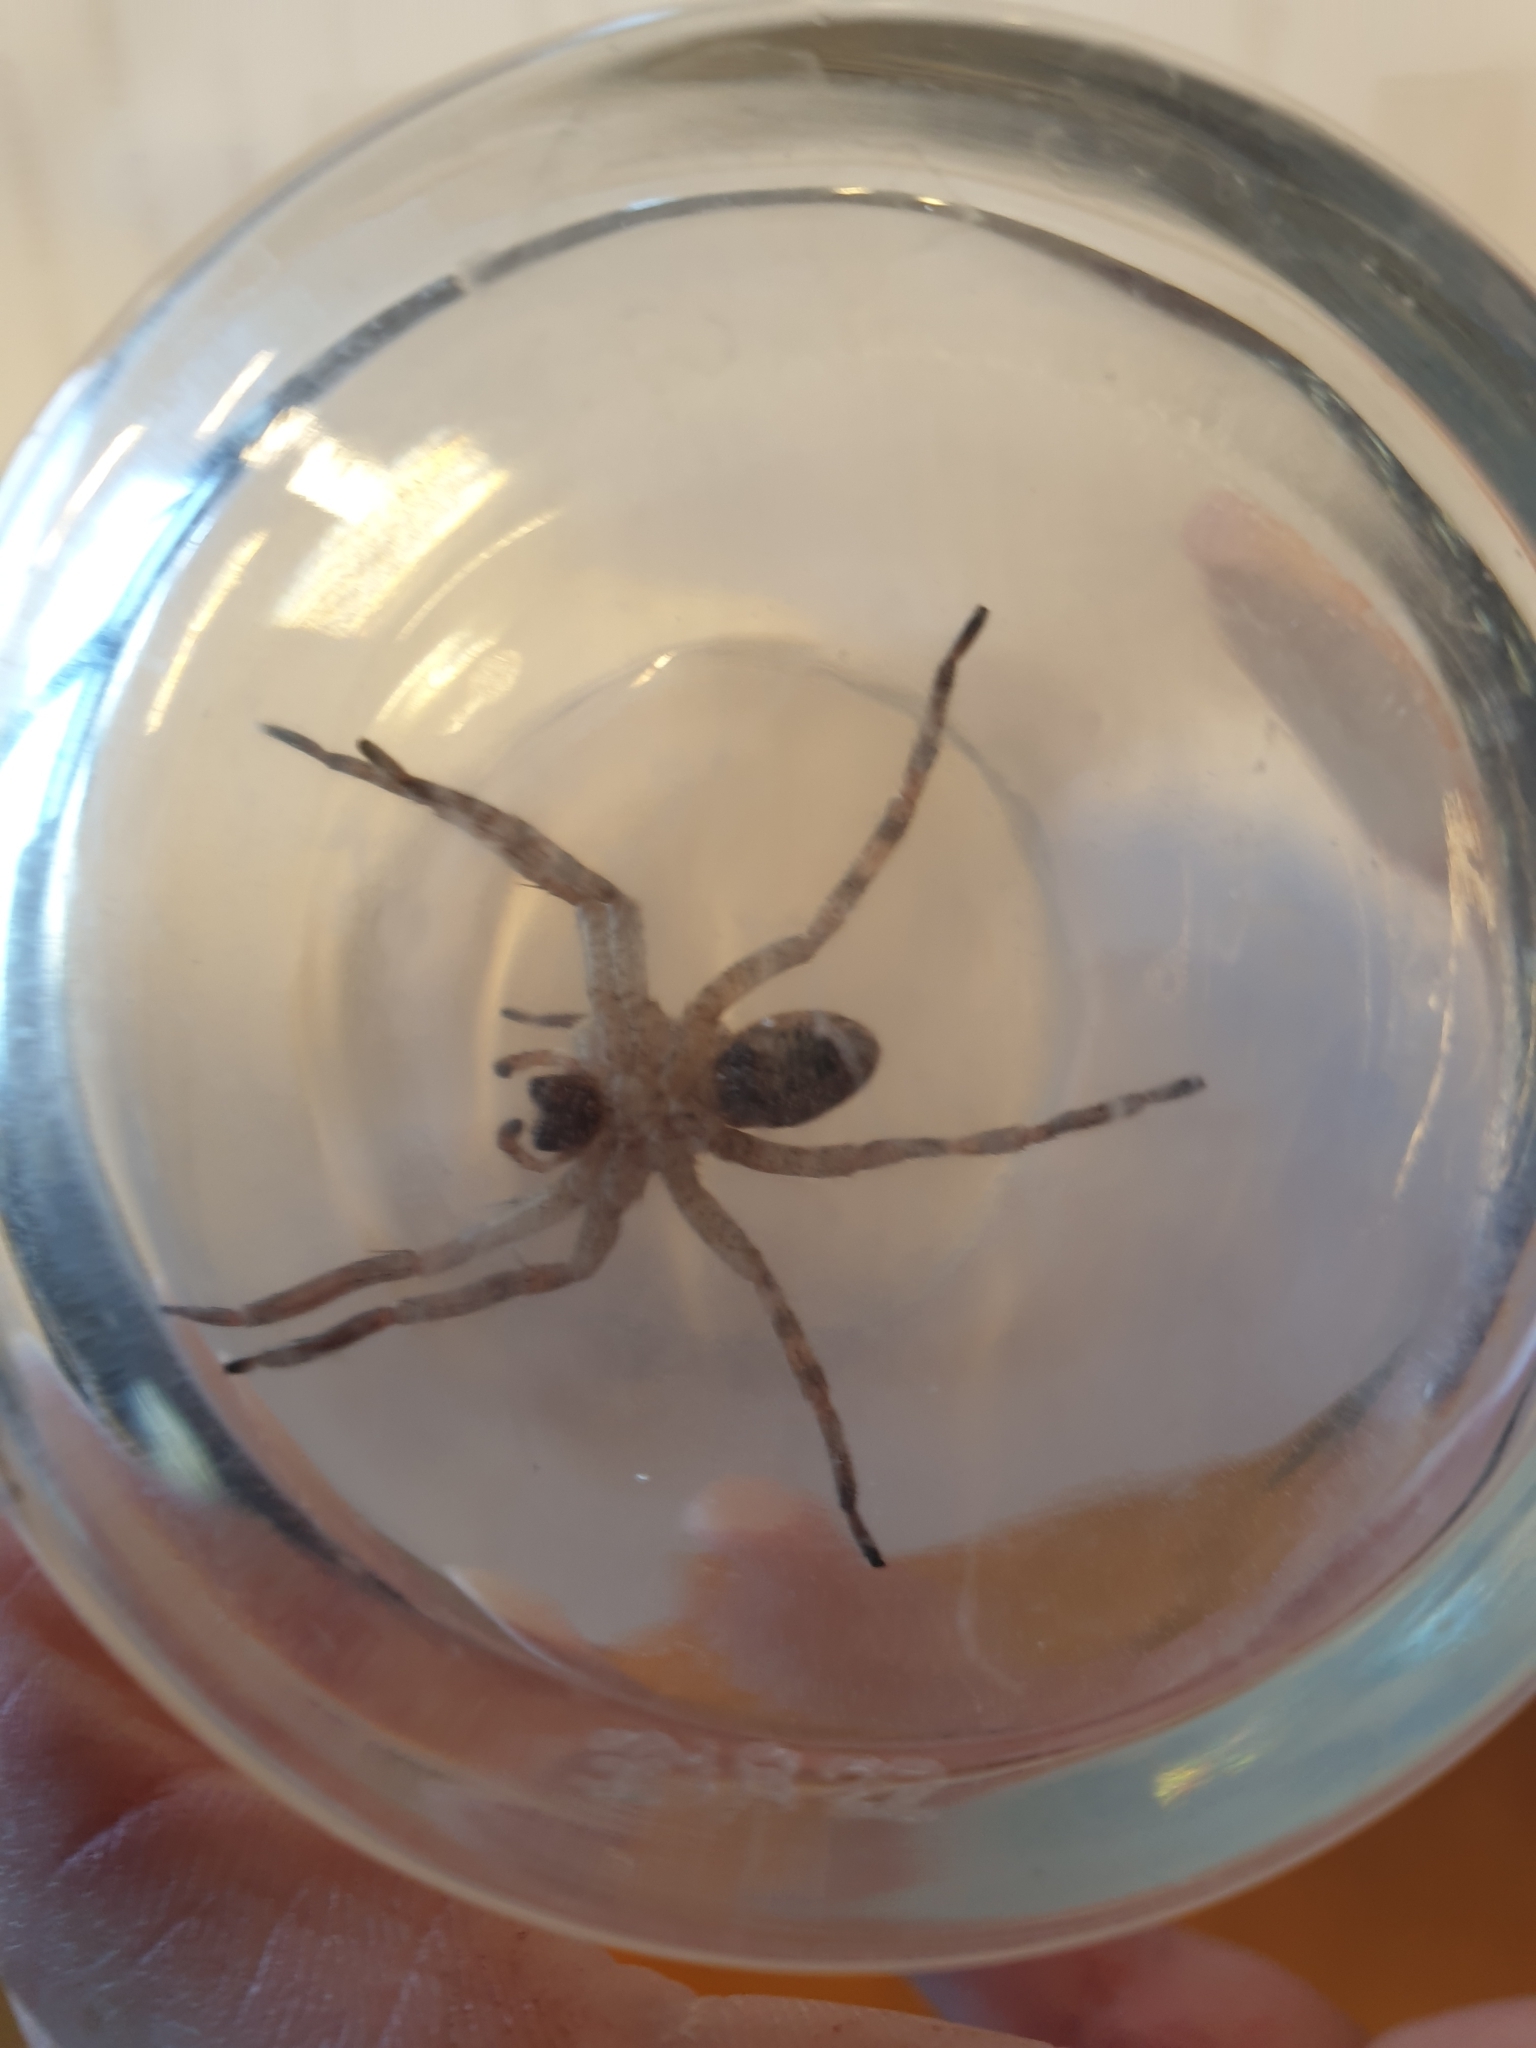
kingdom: Animalia
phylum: Arthropoda
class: Arachnida
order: Araneae
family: Zoropsidae
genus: Zoropsis
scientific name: Zoropsis spinimana
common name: Zoropsid spider
